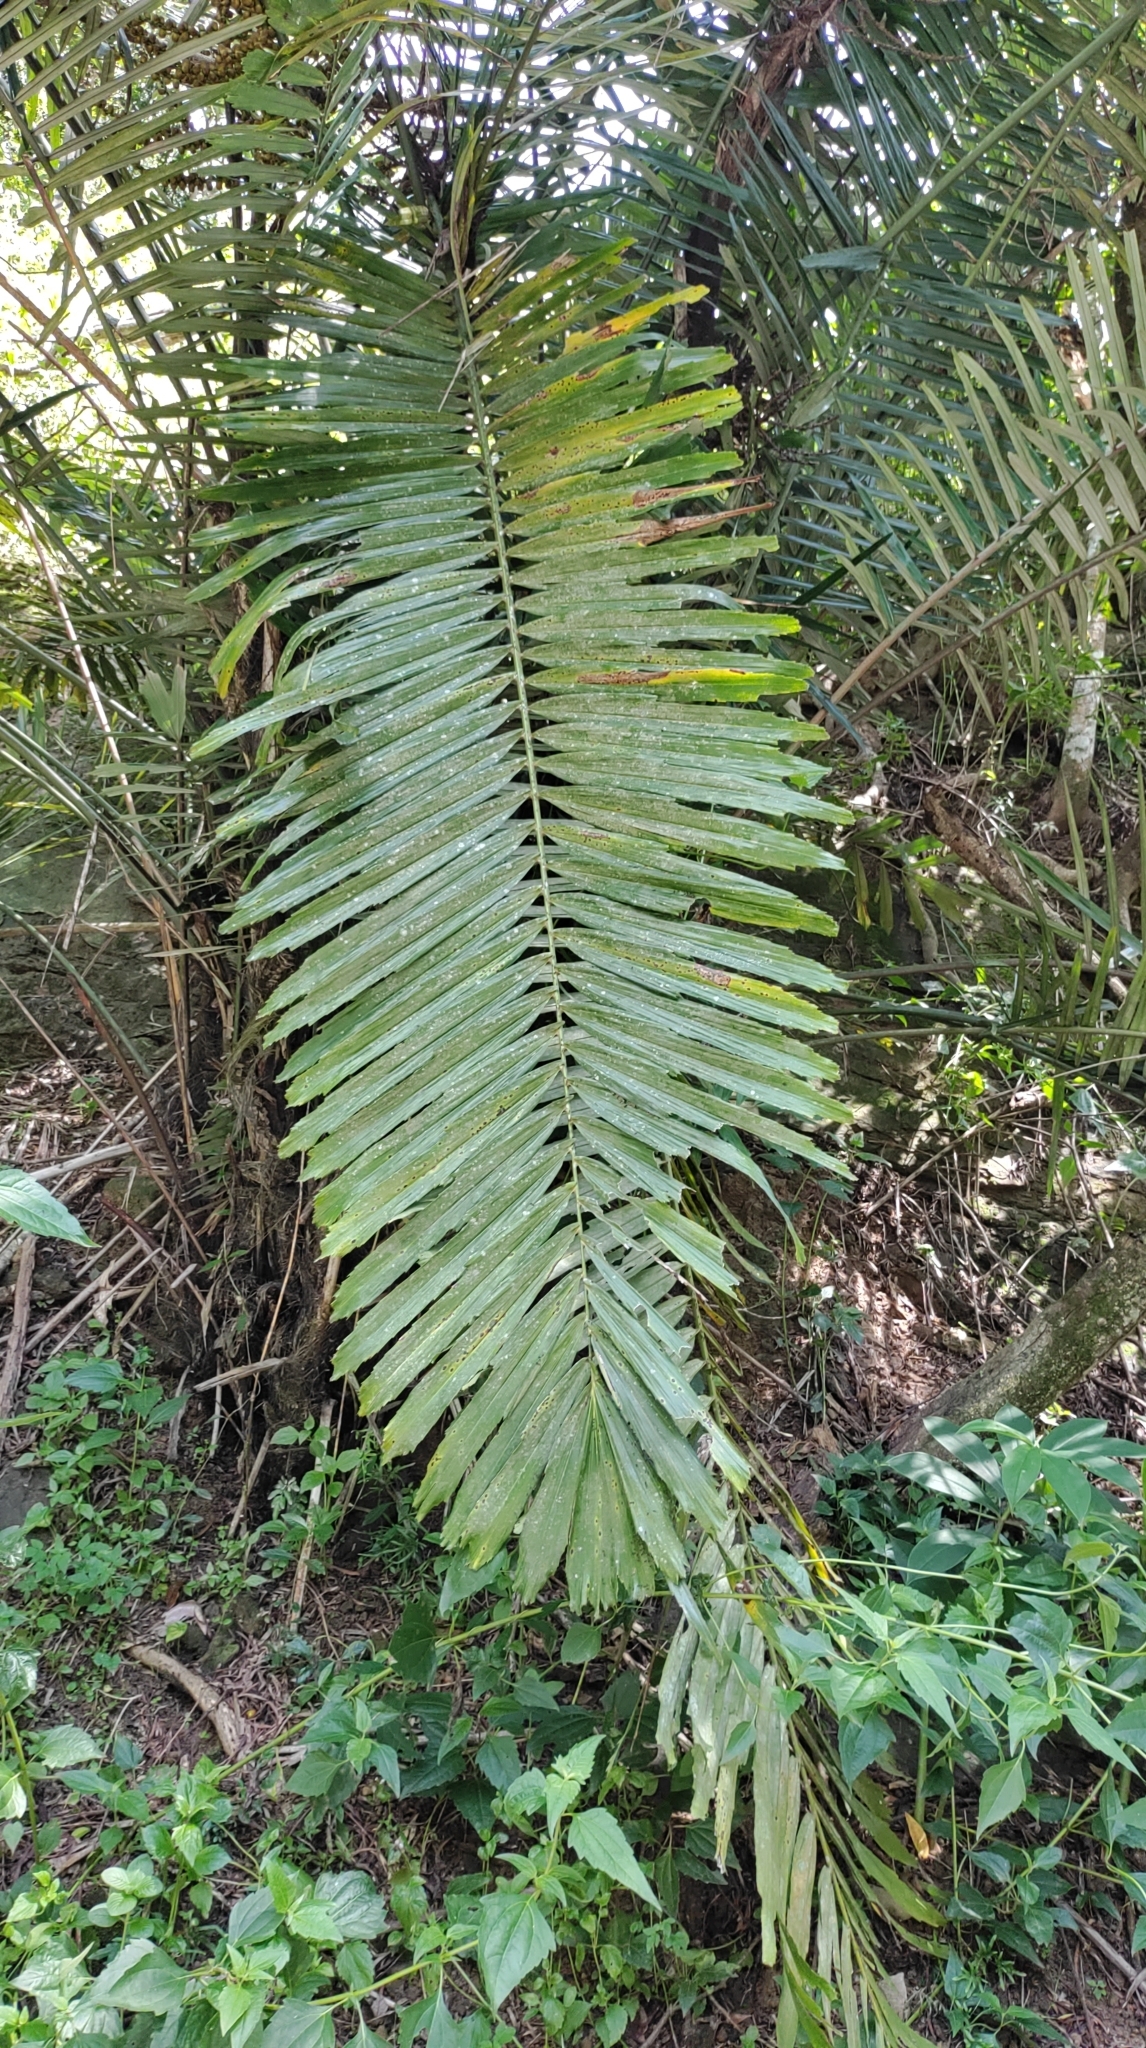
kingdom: Plantae
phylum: Tracheophyta
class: Liliopsida
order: Arecales
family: Arecaceae
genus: Arenga
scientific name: Arenga engleri
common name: Formosan sugar palm
